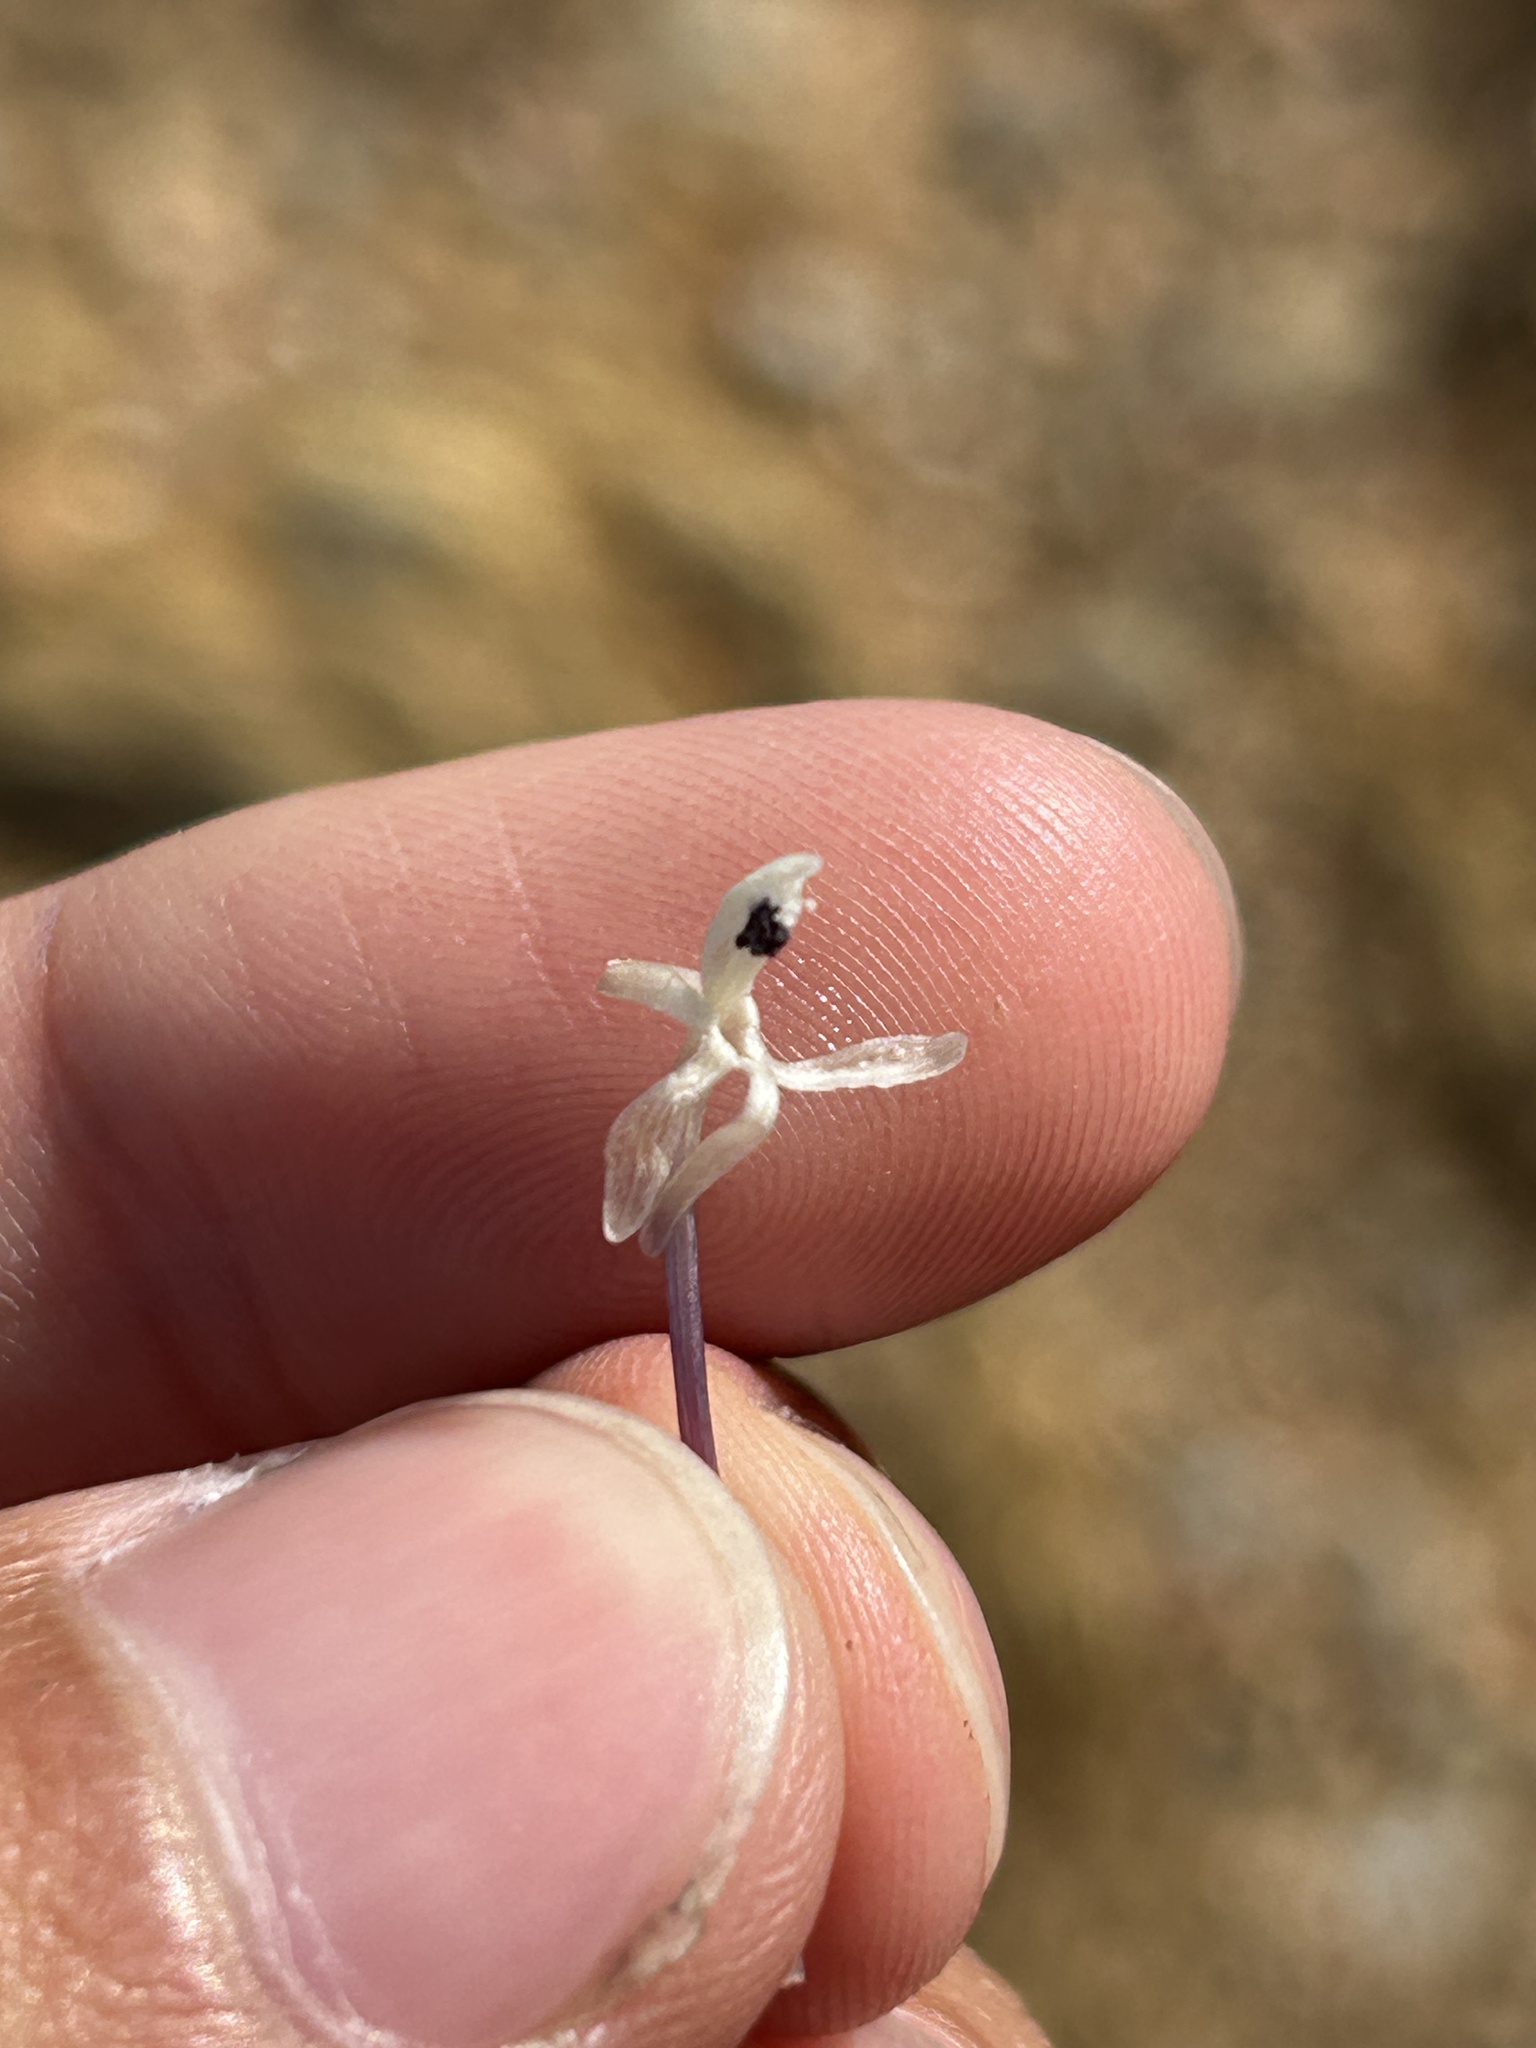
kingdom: Plantae
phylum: Tracheophyta
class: Liliopsida
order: Asparagales
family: Iridaceae
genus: Xenoscapa
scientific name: Xenoscapa fistulosa
